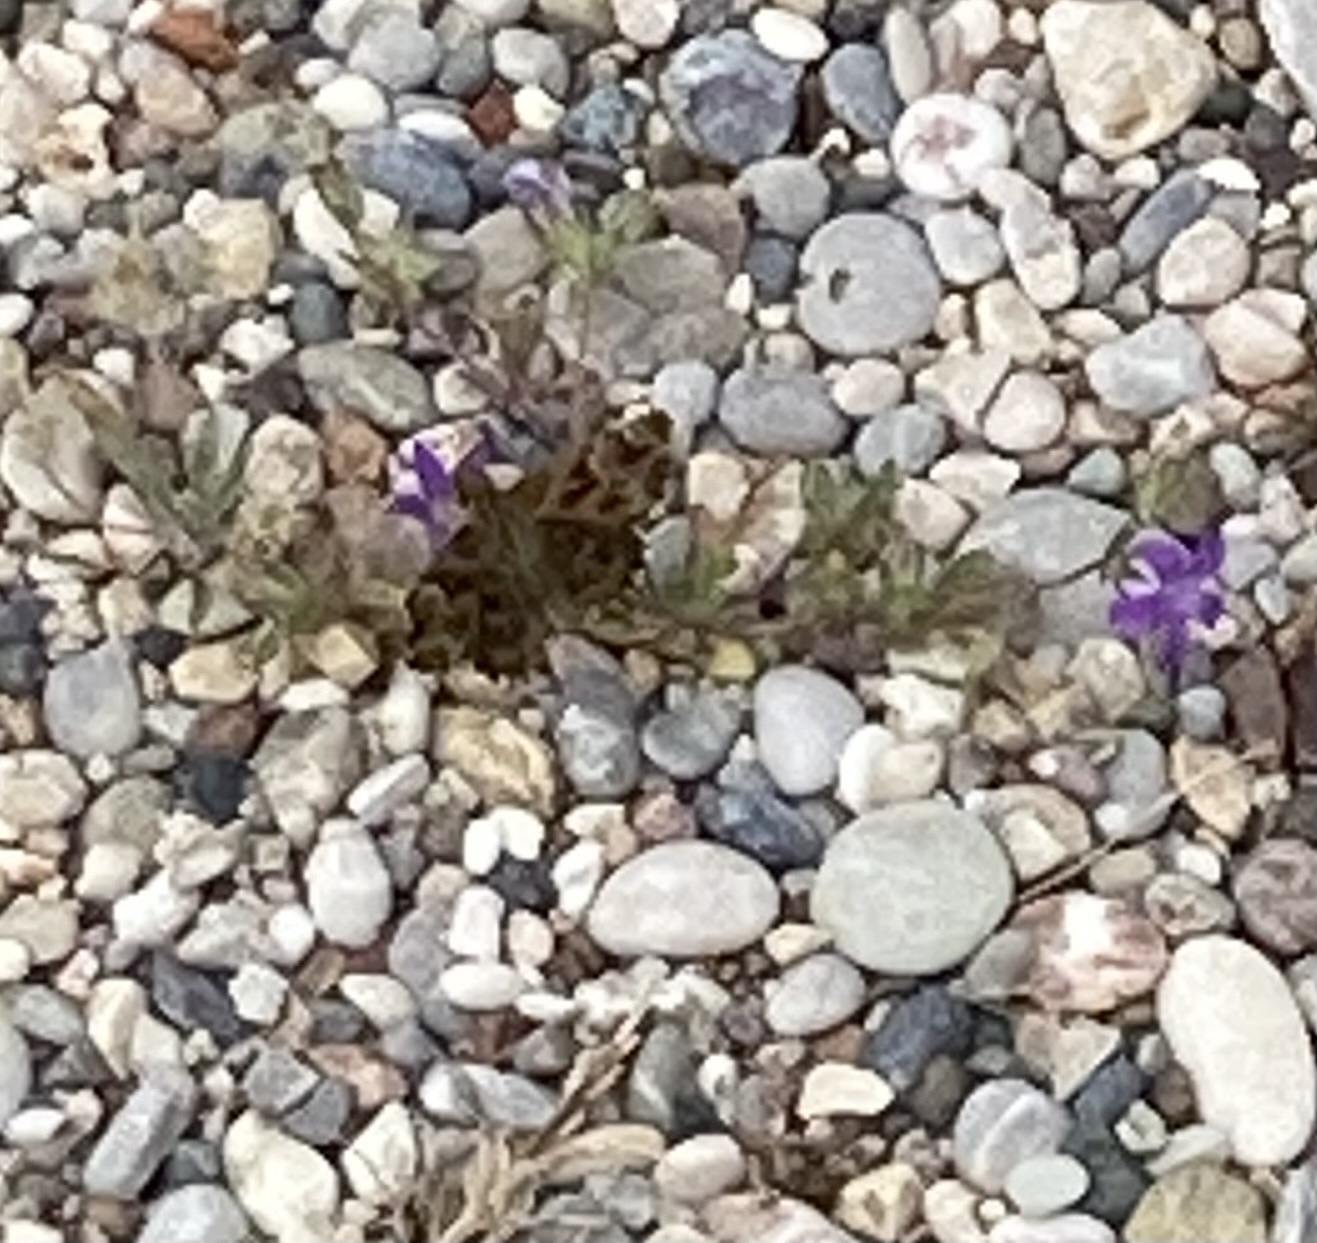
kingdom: Animalia
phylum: Arthropoda
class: Insecta
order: Lepidoptera
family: Hesperiidae
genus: Carcharodus
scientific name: Carcharodus alceae
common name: Mallow skipper
